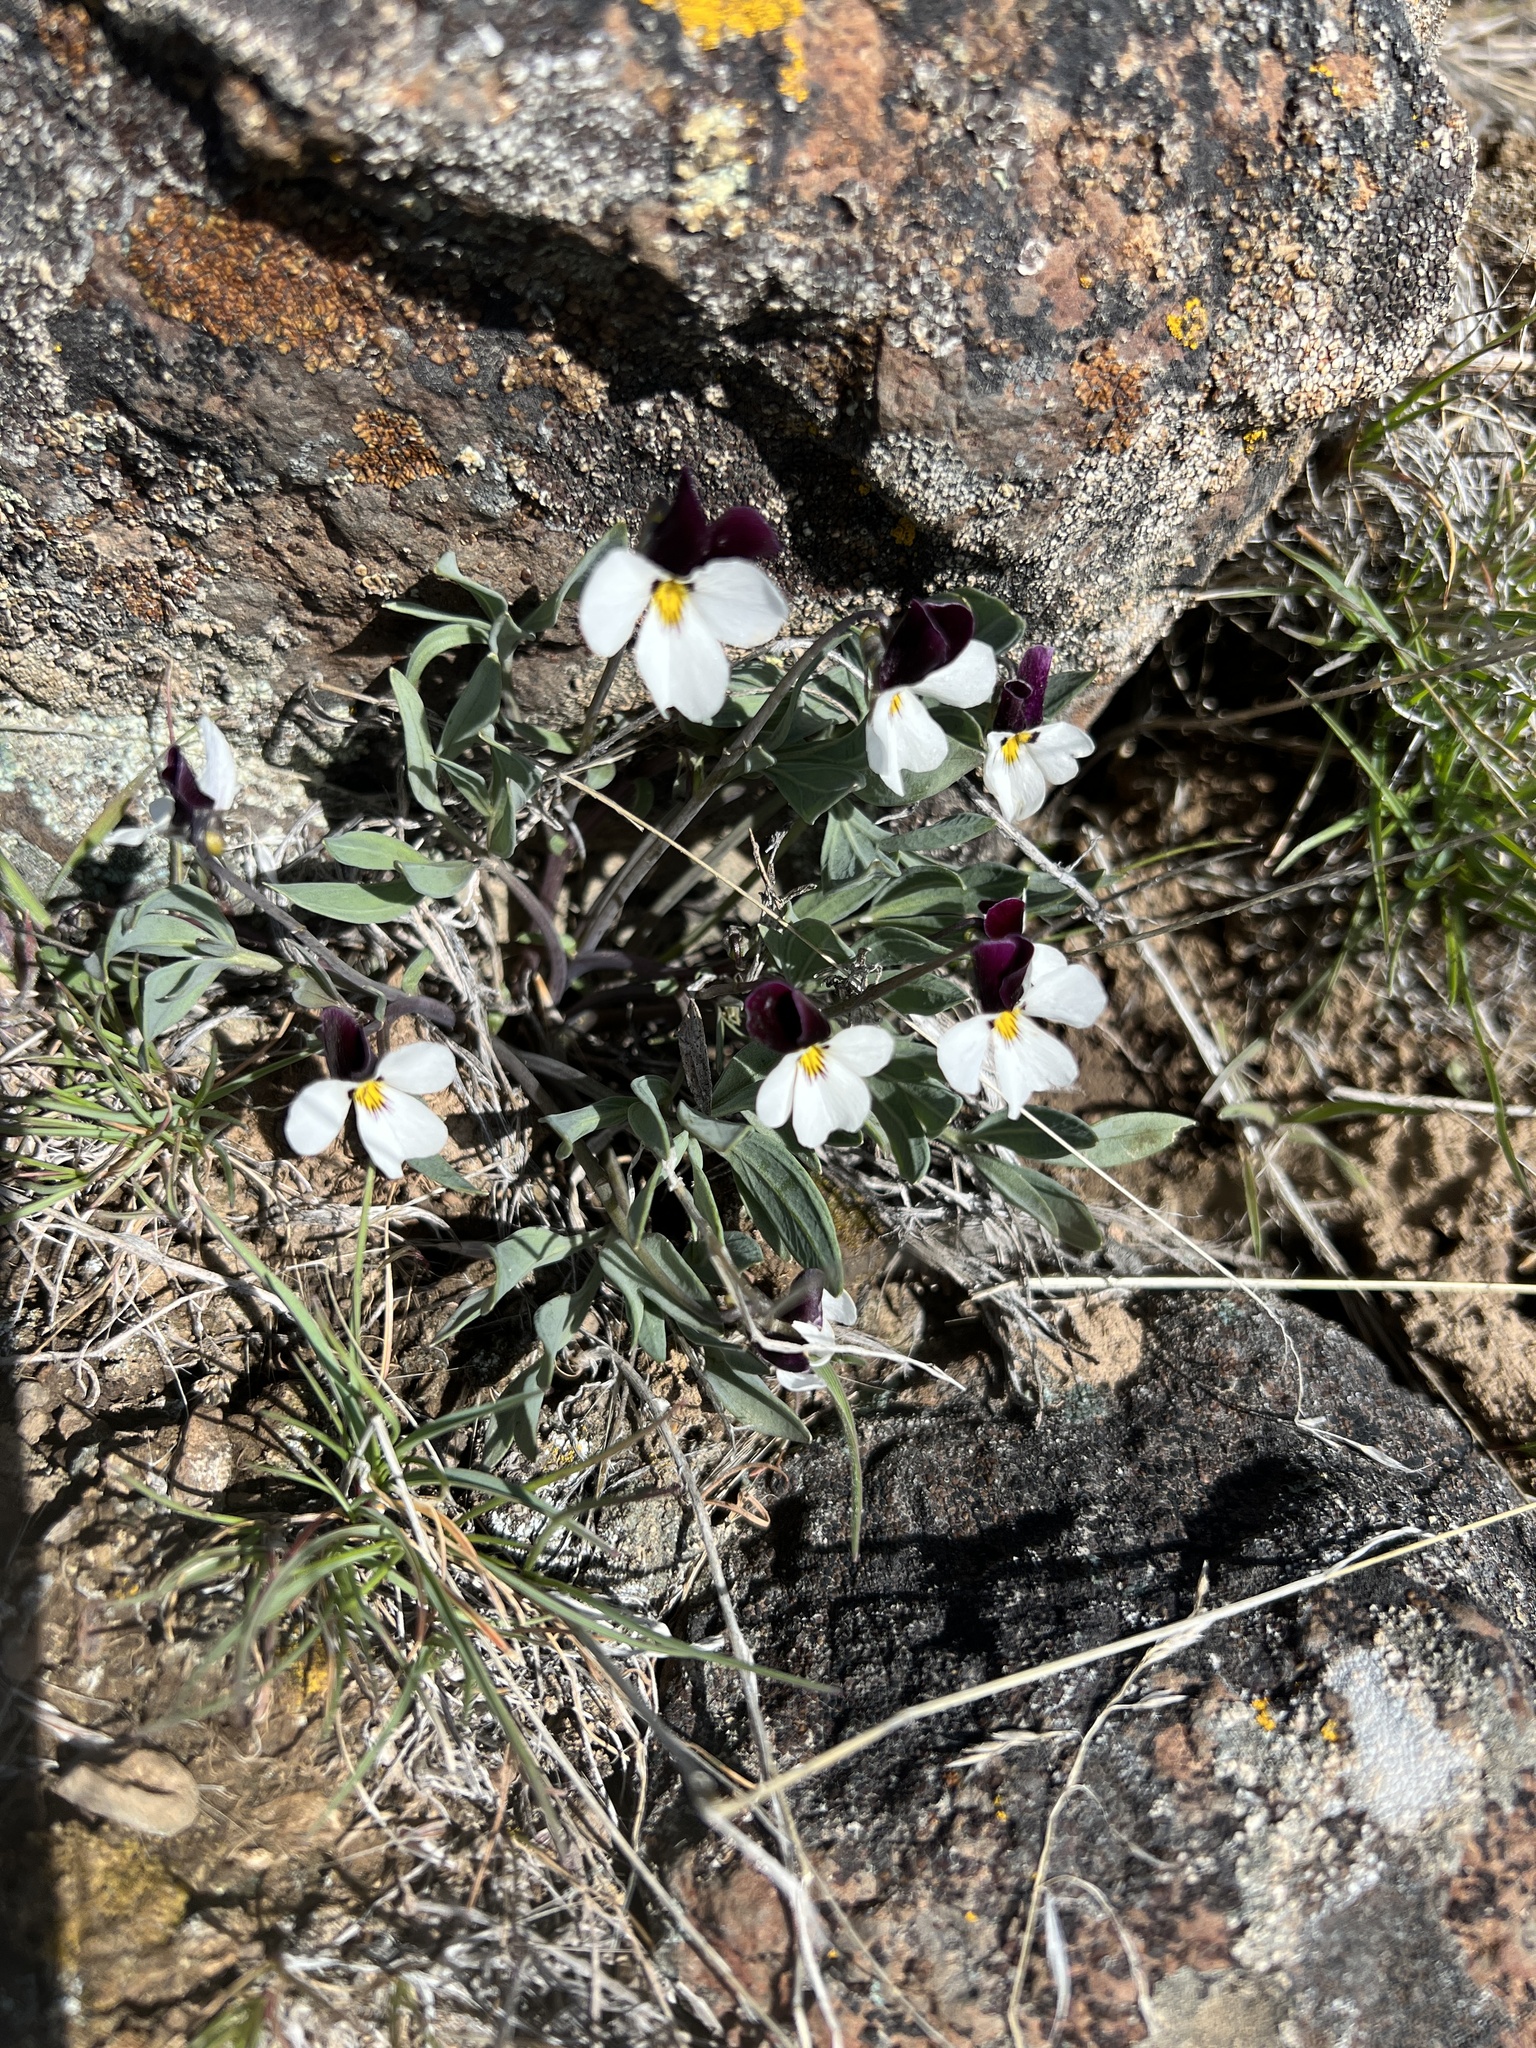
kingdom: Plantae
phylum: Tracheophyta
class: Magnoliopsida
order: Malpighiales
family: Violaceae
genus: Viola
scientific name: Viola trinervata
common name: Sagebrush violet
